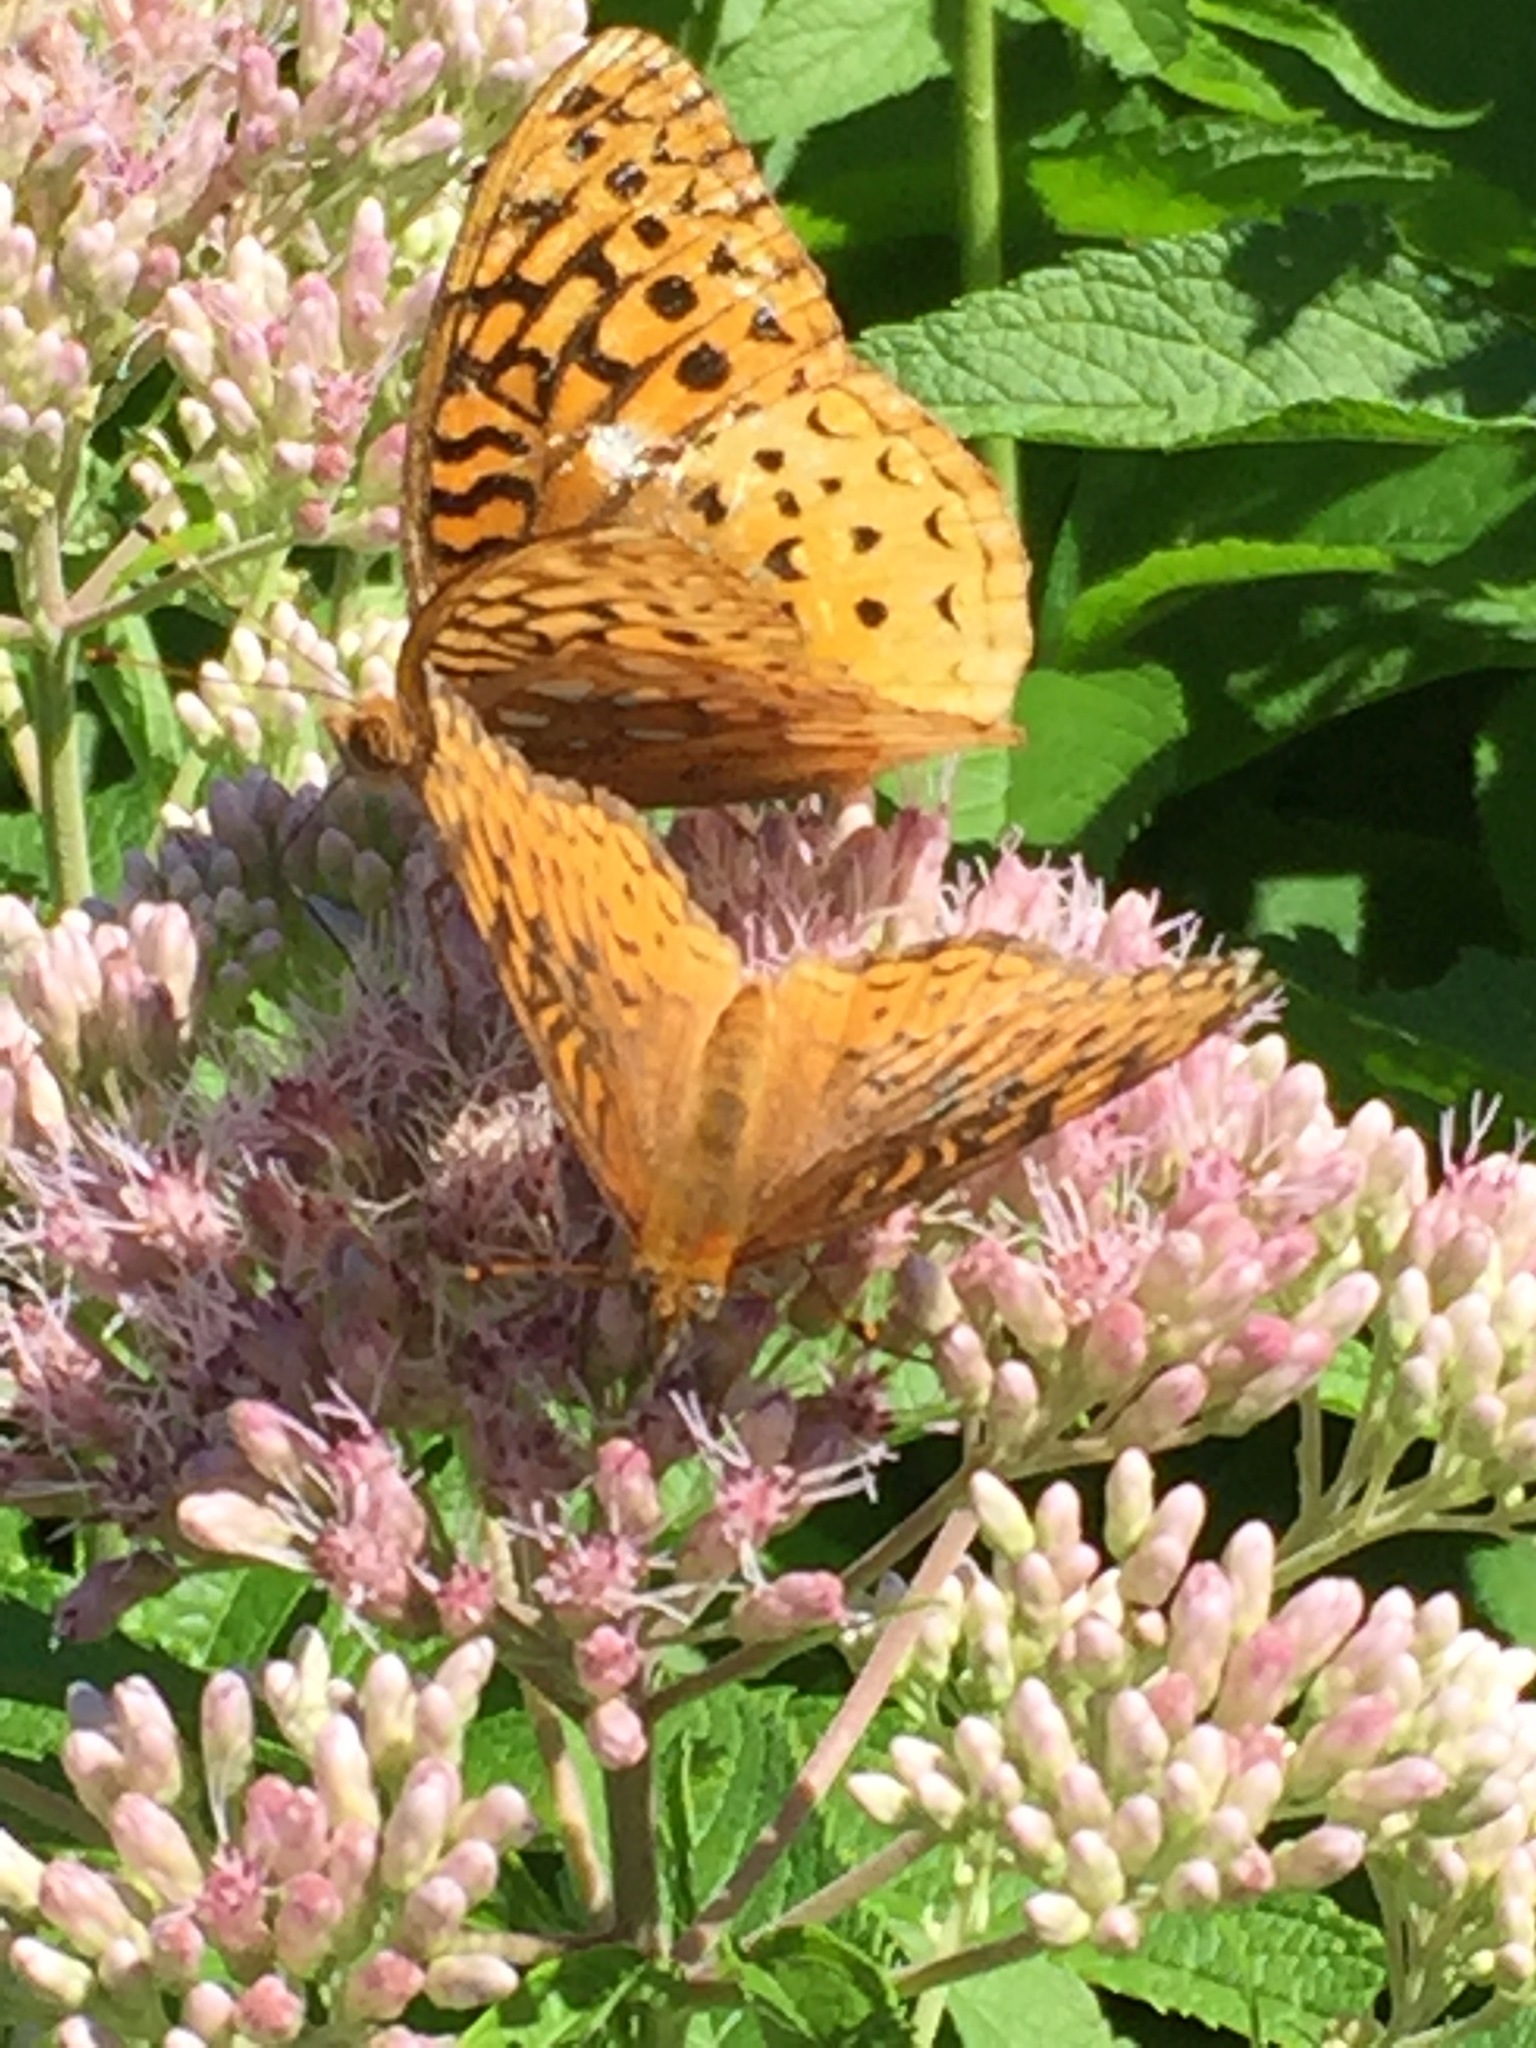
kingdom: Animalia
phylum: Arthropoda
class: Insecta
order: Lepidoptera
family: Nymphalidae
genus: Speyeria
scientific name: Speyeria cybele
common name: Great spangled fritillary
